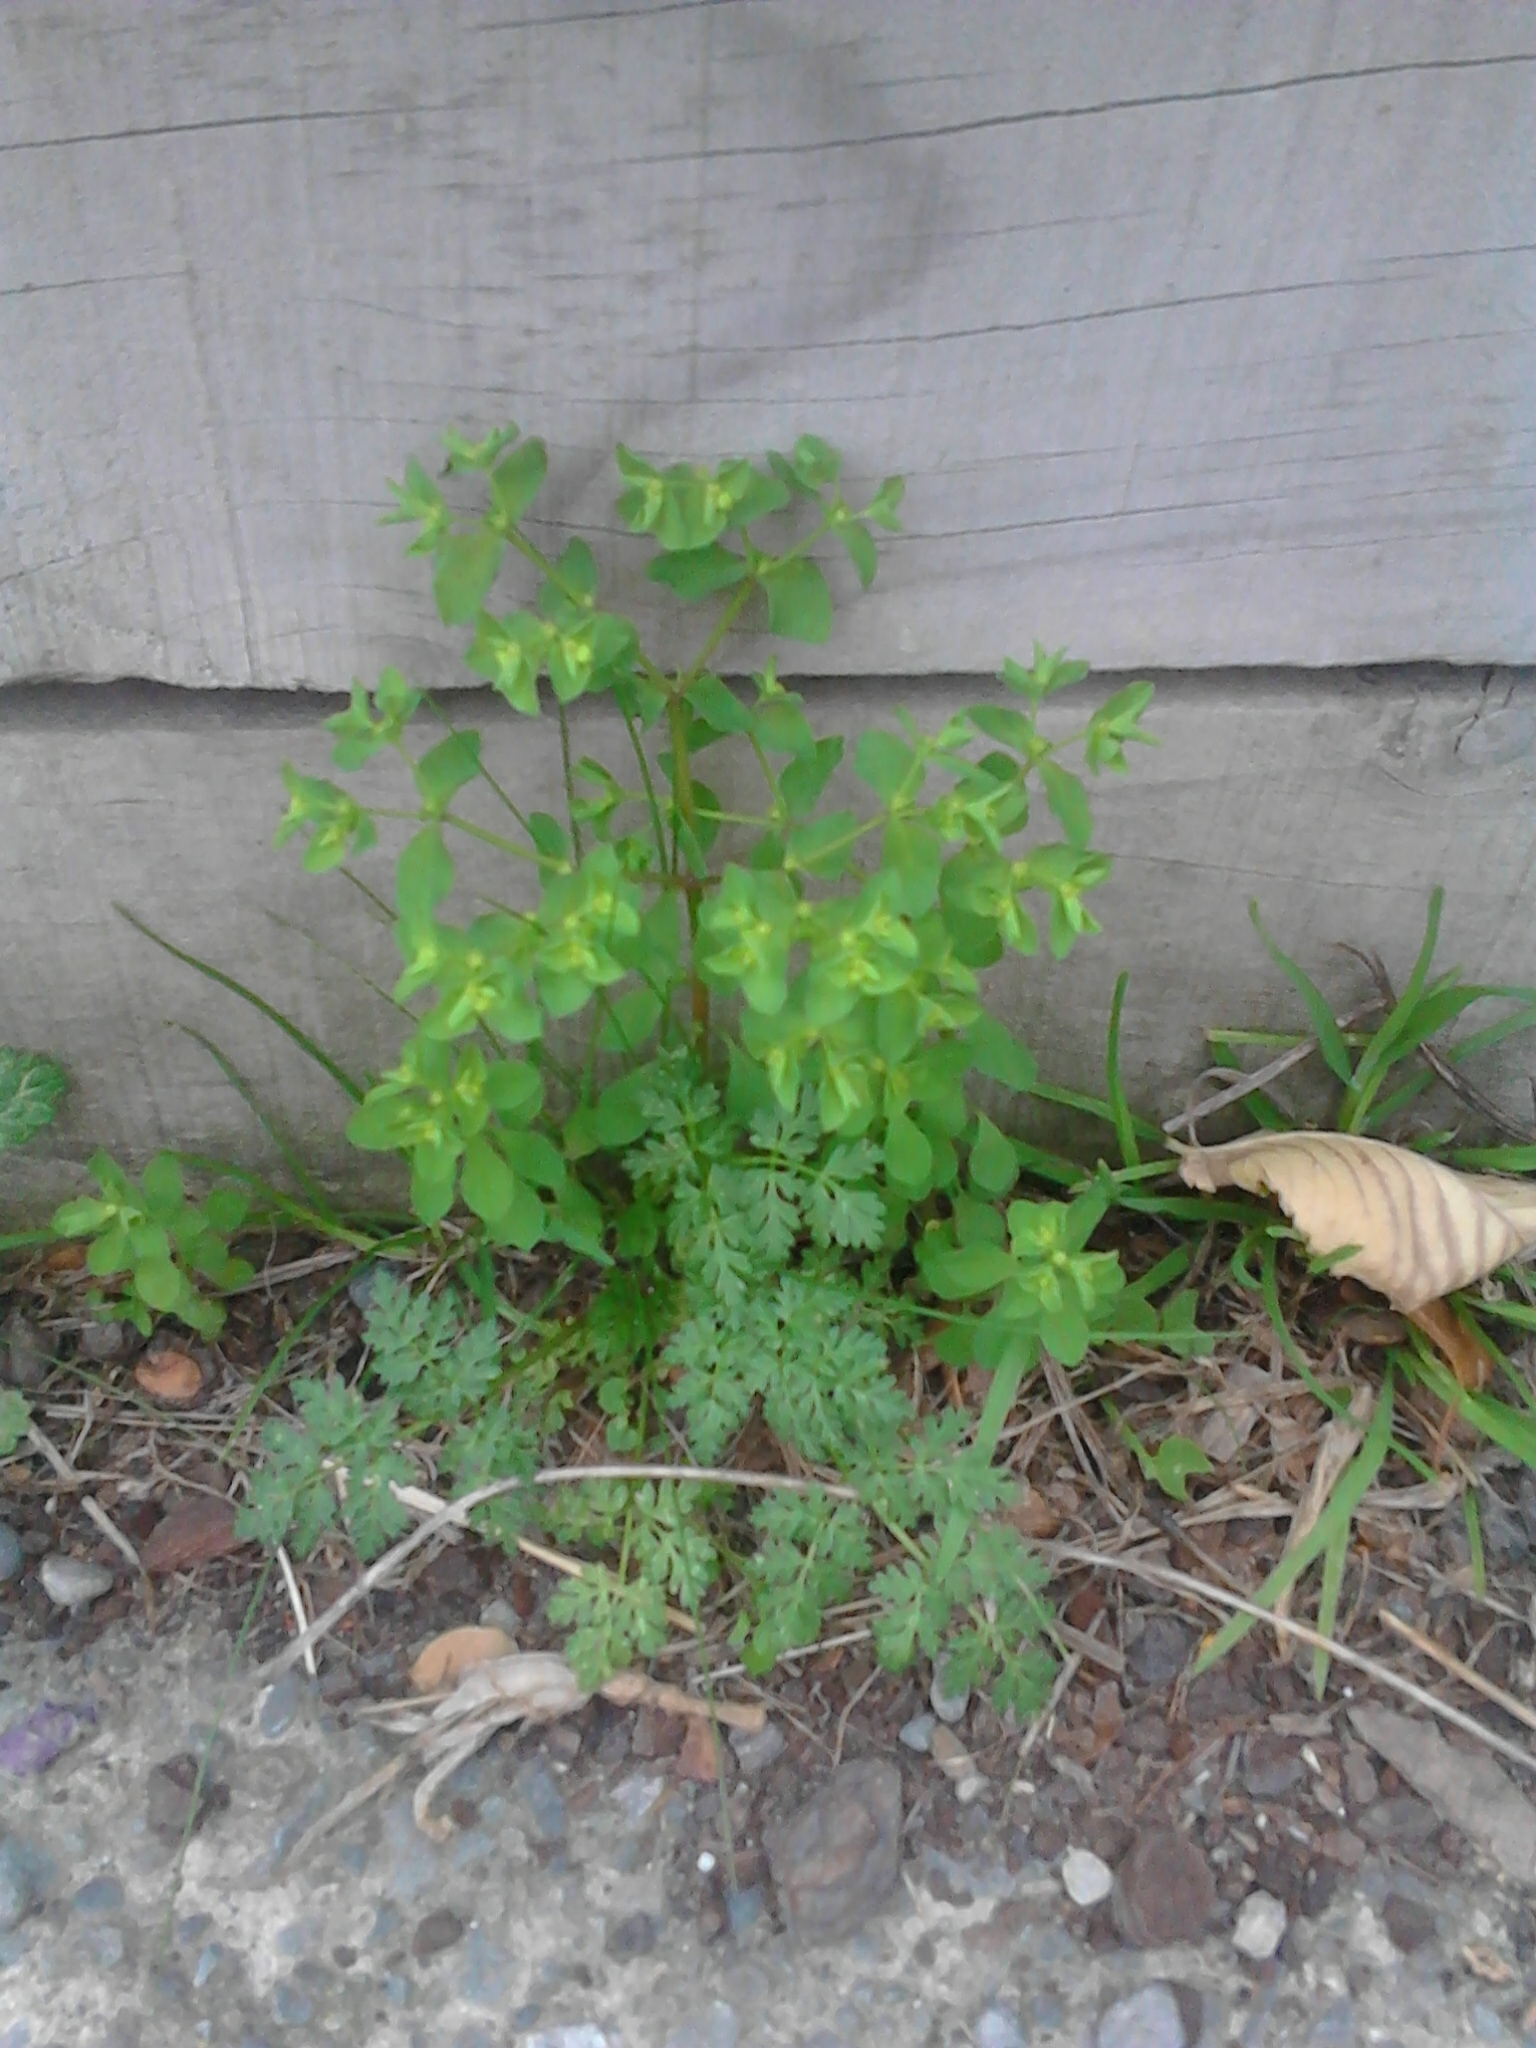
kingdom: Plantae
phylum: Tracheophyta
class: Magnoliopsida
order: Malpighiales
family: Euphorbiaceae
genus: Euphorbia
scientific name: Euphorbia peplus
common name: Petty spurge
